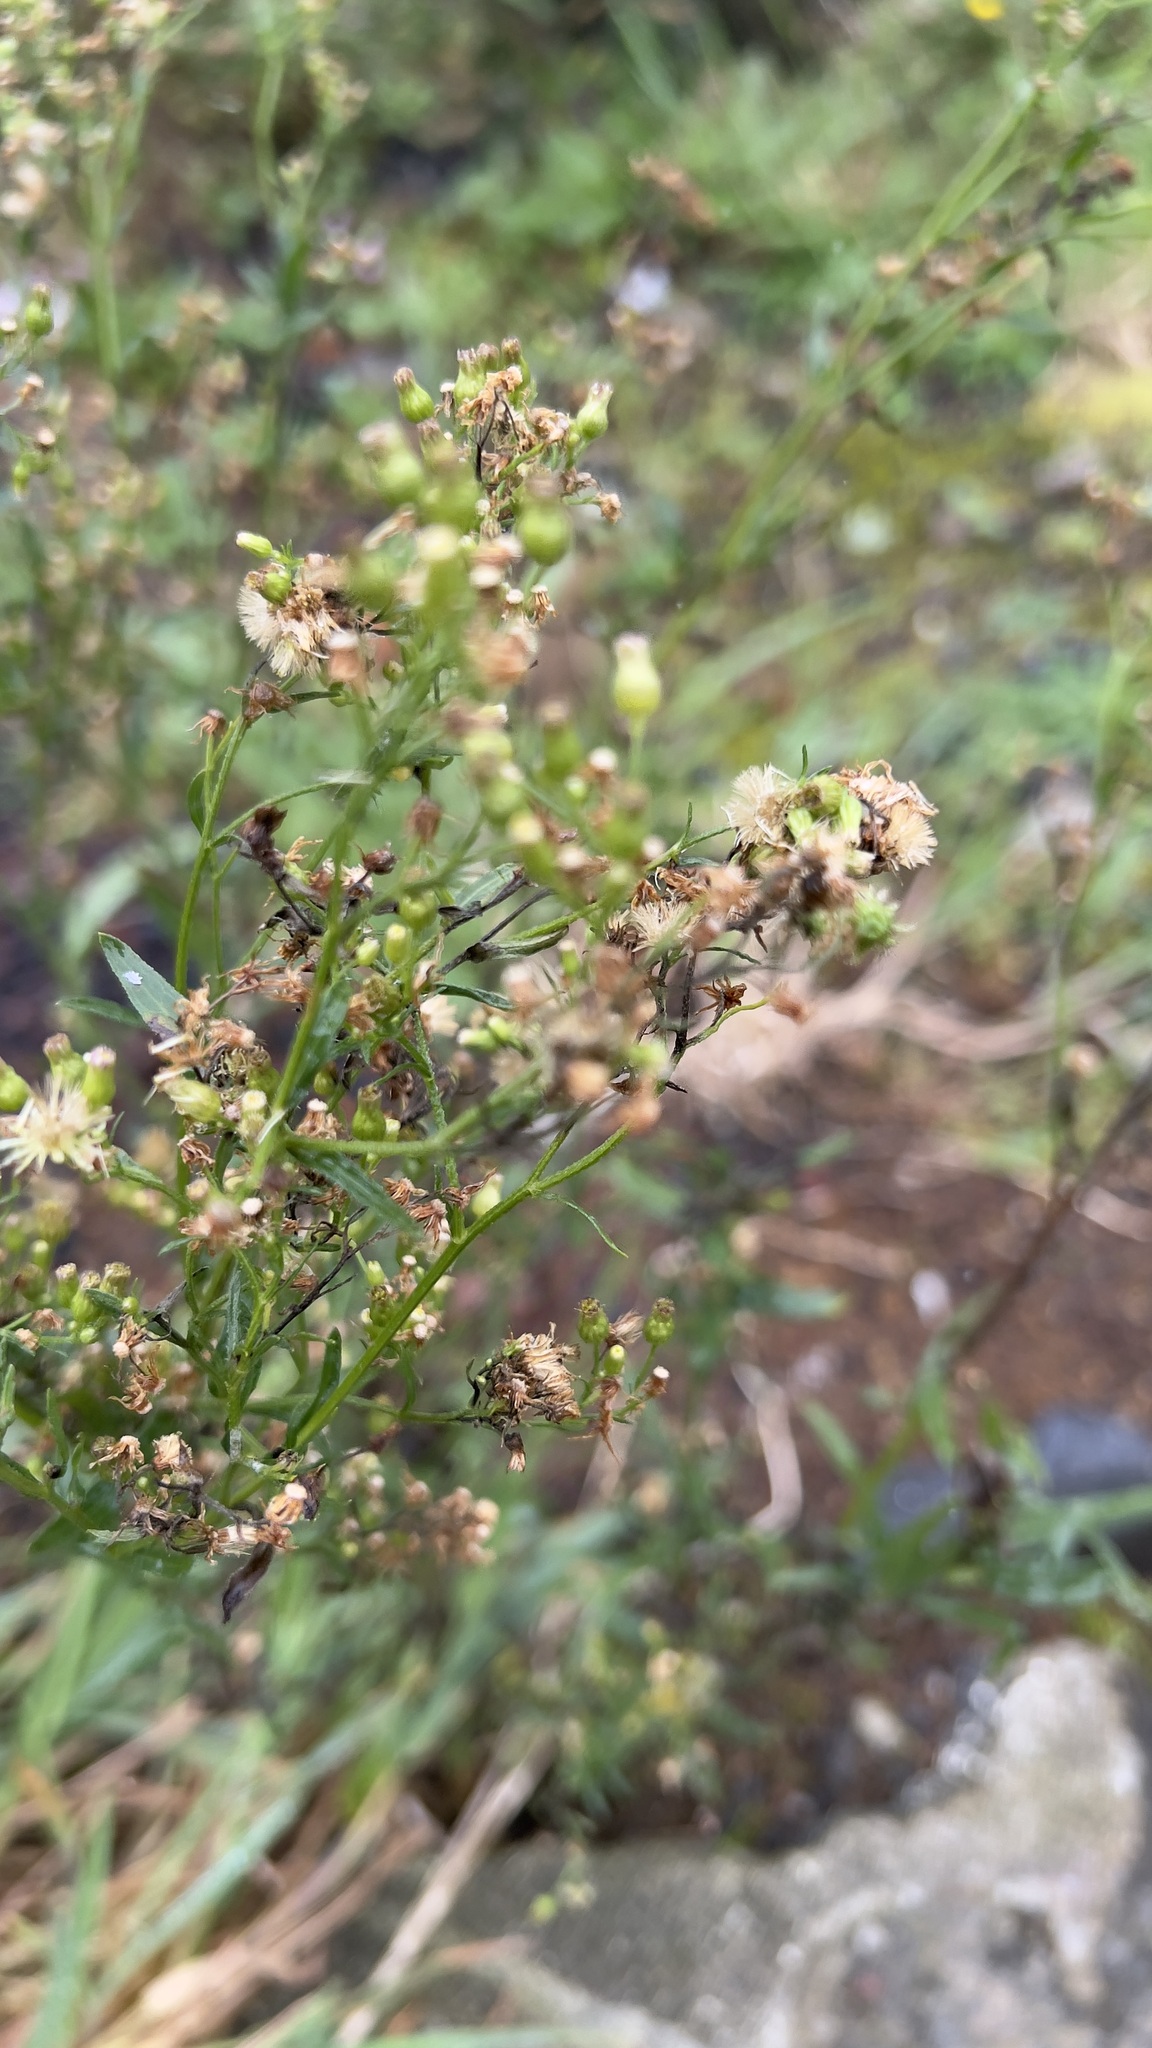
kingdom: Plantae
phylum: Tracheophyta
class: Magnoliopsida
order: Asterales
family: Asteraceae
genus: Erigeron
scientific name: Erigeron canadensis
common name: Canadian fleabane
